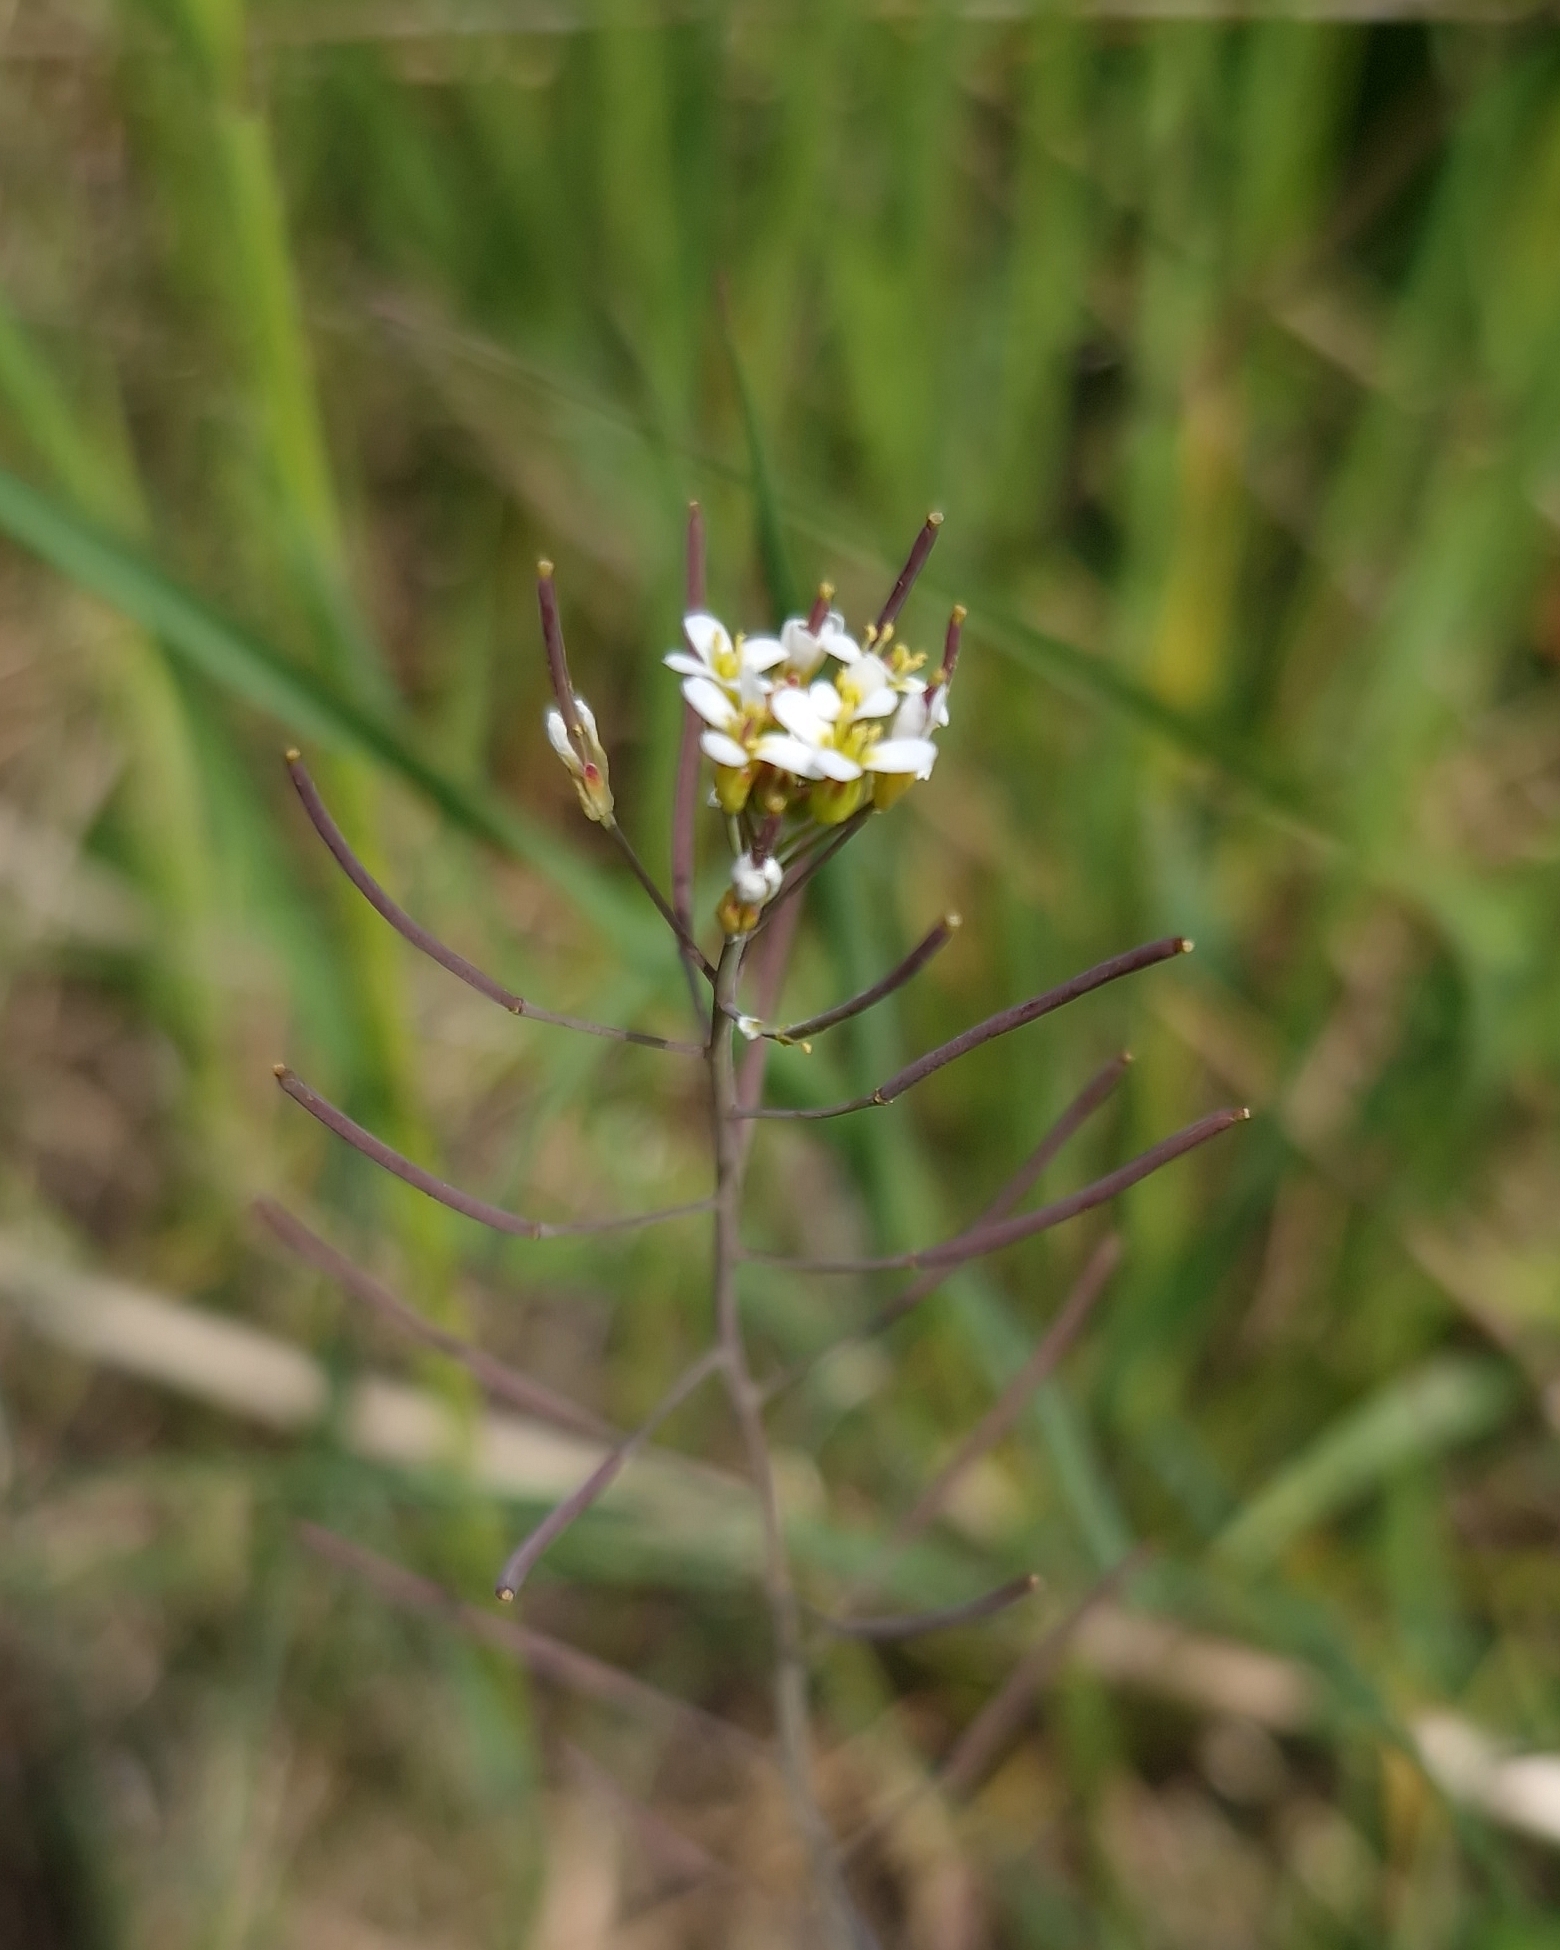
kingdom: Plantae
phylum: Tracheophyta
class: Magnoliopsida
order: Brassicales
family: Brassicaceae
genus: Arabidopsis
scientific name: Arabidopsis thaliana
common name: Thale cress
